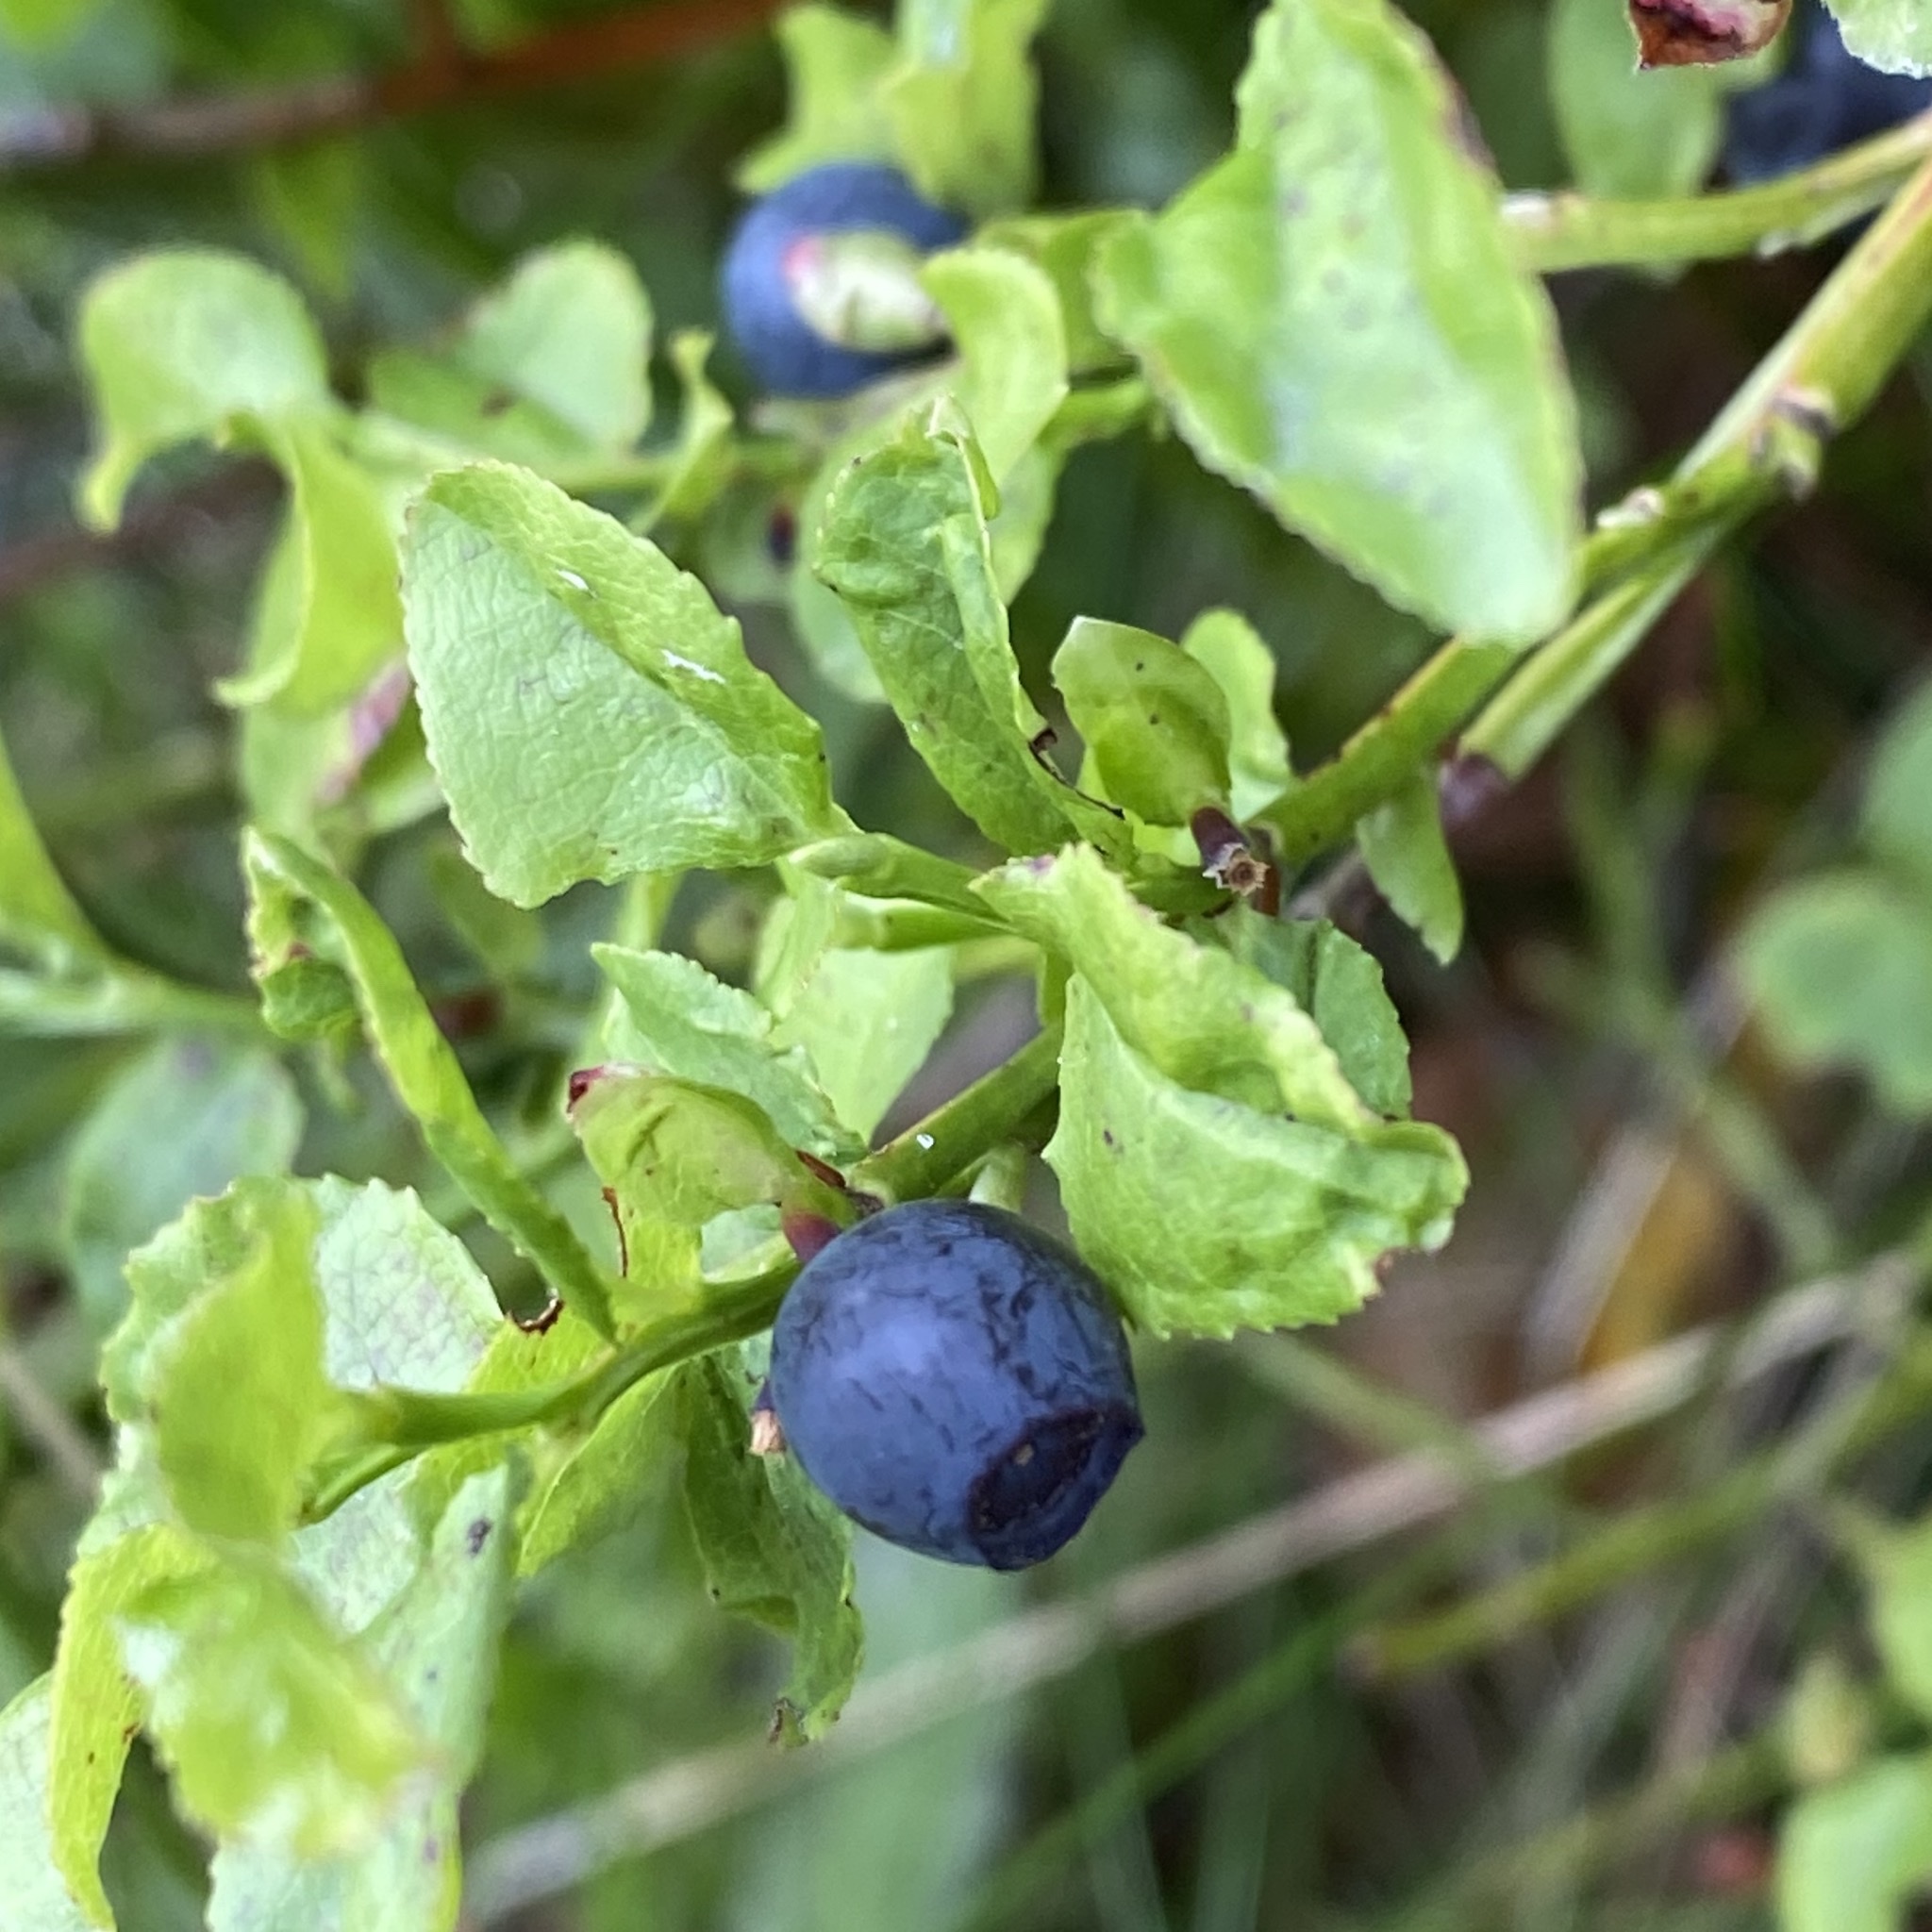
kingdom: Plantae
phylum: Tracheophyta
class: Magnoliopsida
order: Ericales
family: Ericaceae
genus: Vaccinium
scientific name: Vaccinium myrtillus
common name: Bilberry
